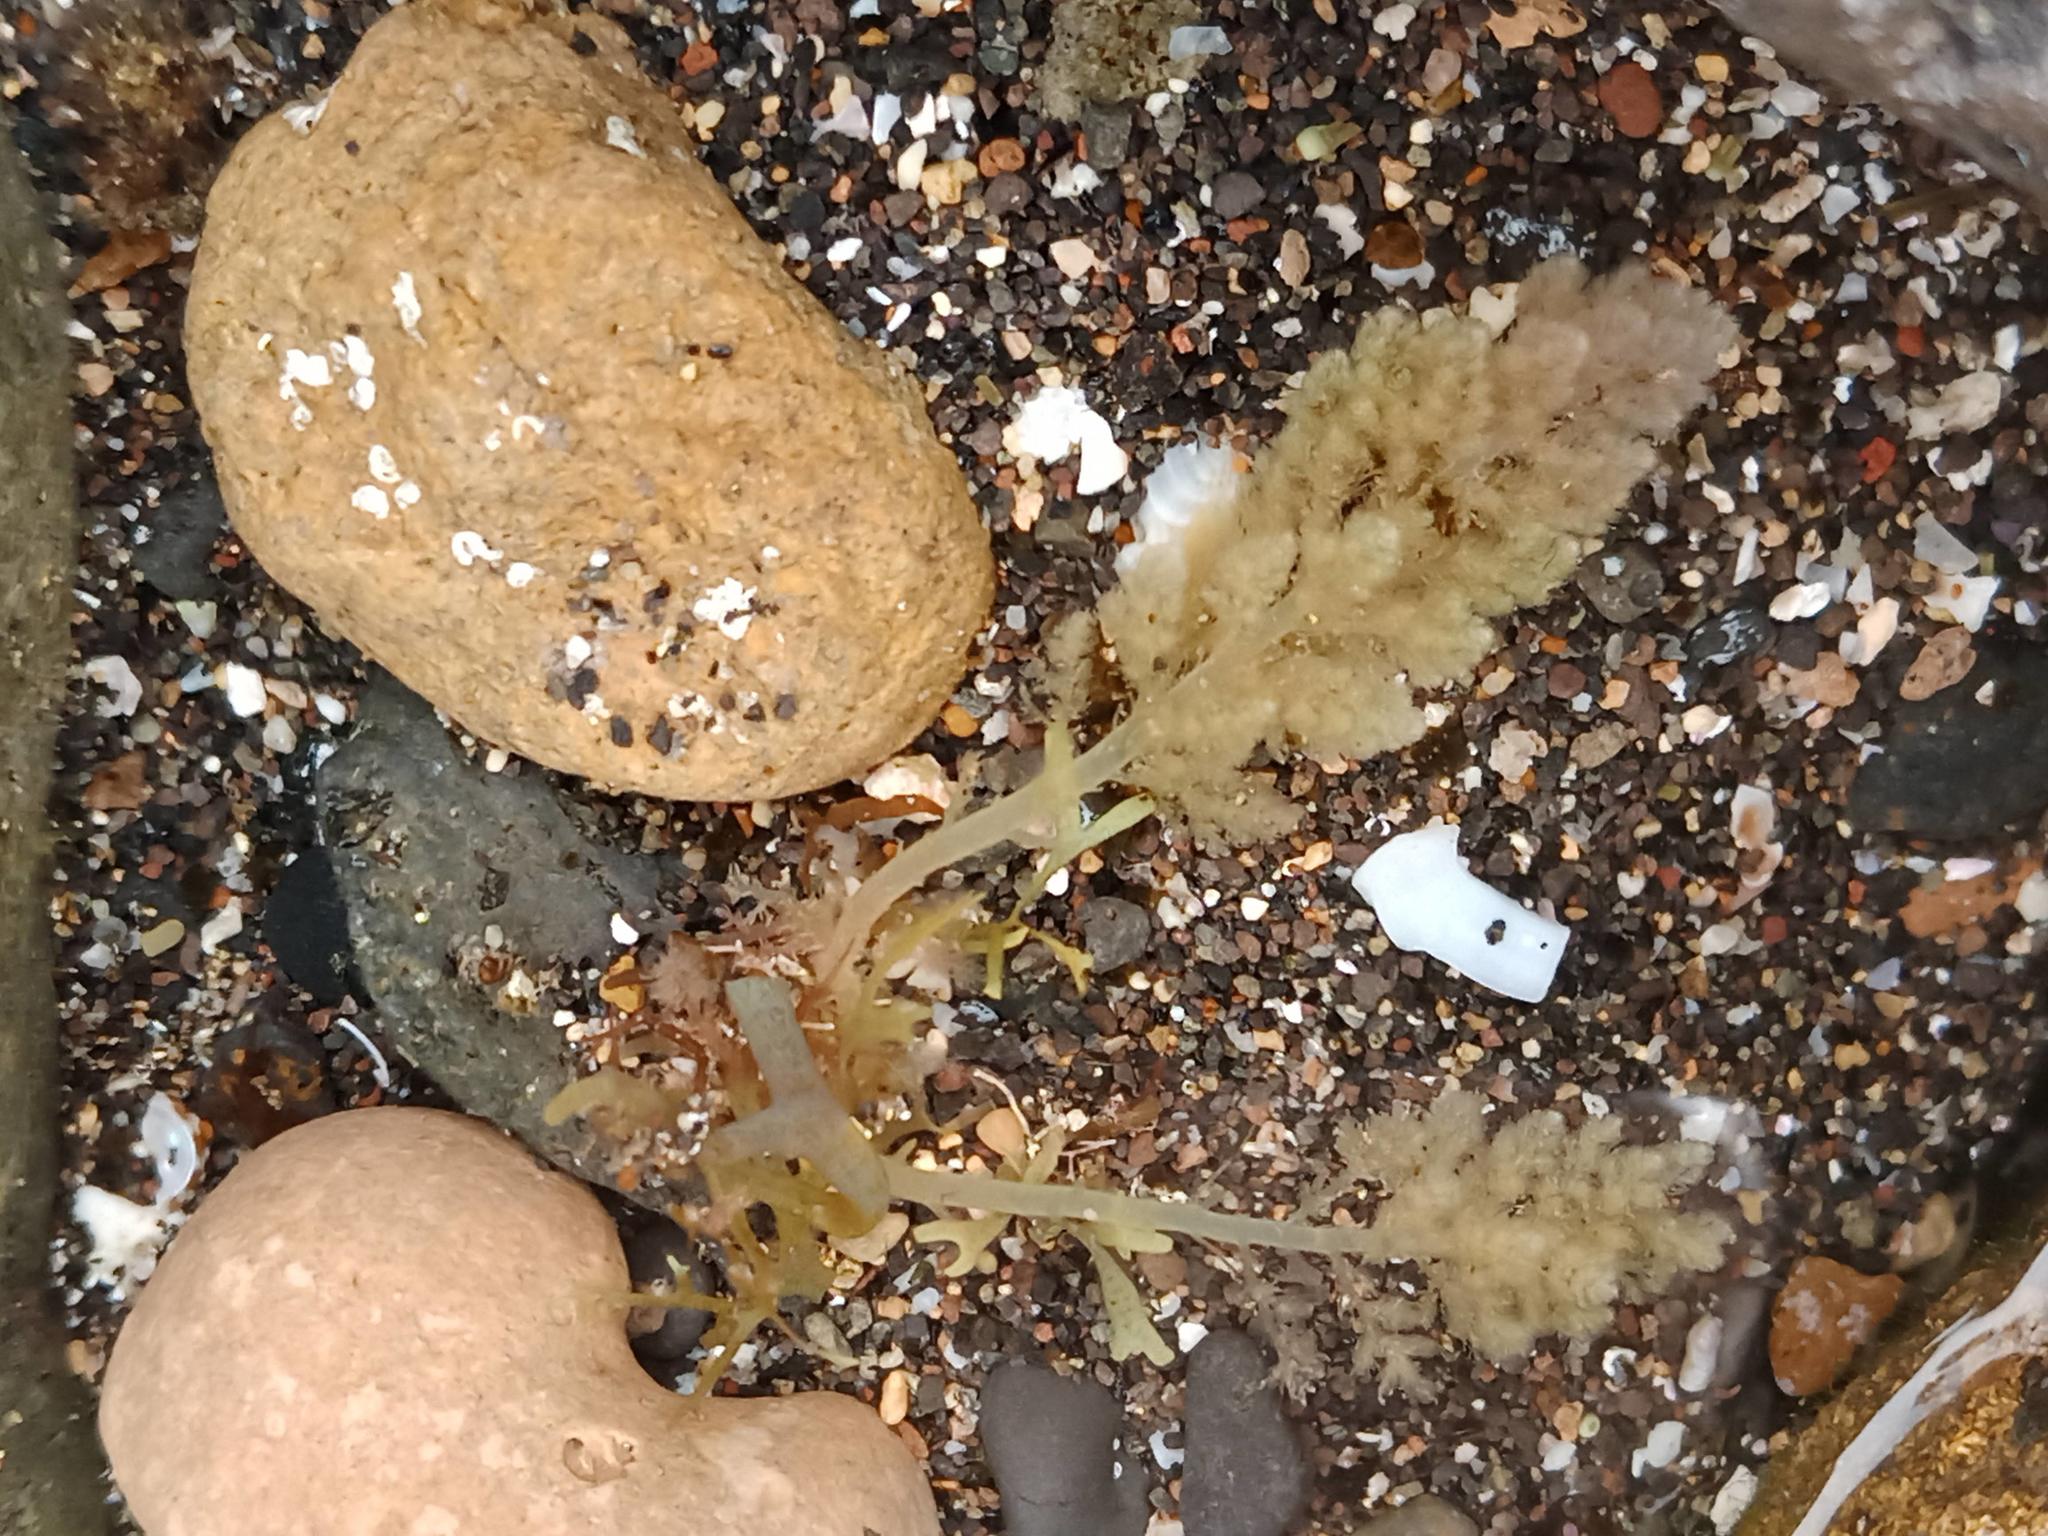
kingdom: Plantae
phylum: Rhodophyta
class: Florideophyceae
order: Bonnemaisoniales
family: Bonnemaisoniaceae
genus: Asparagopsis
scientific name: Asparagopsis taxiformis
